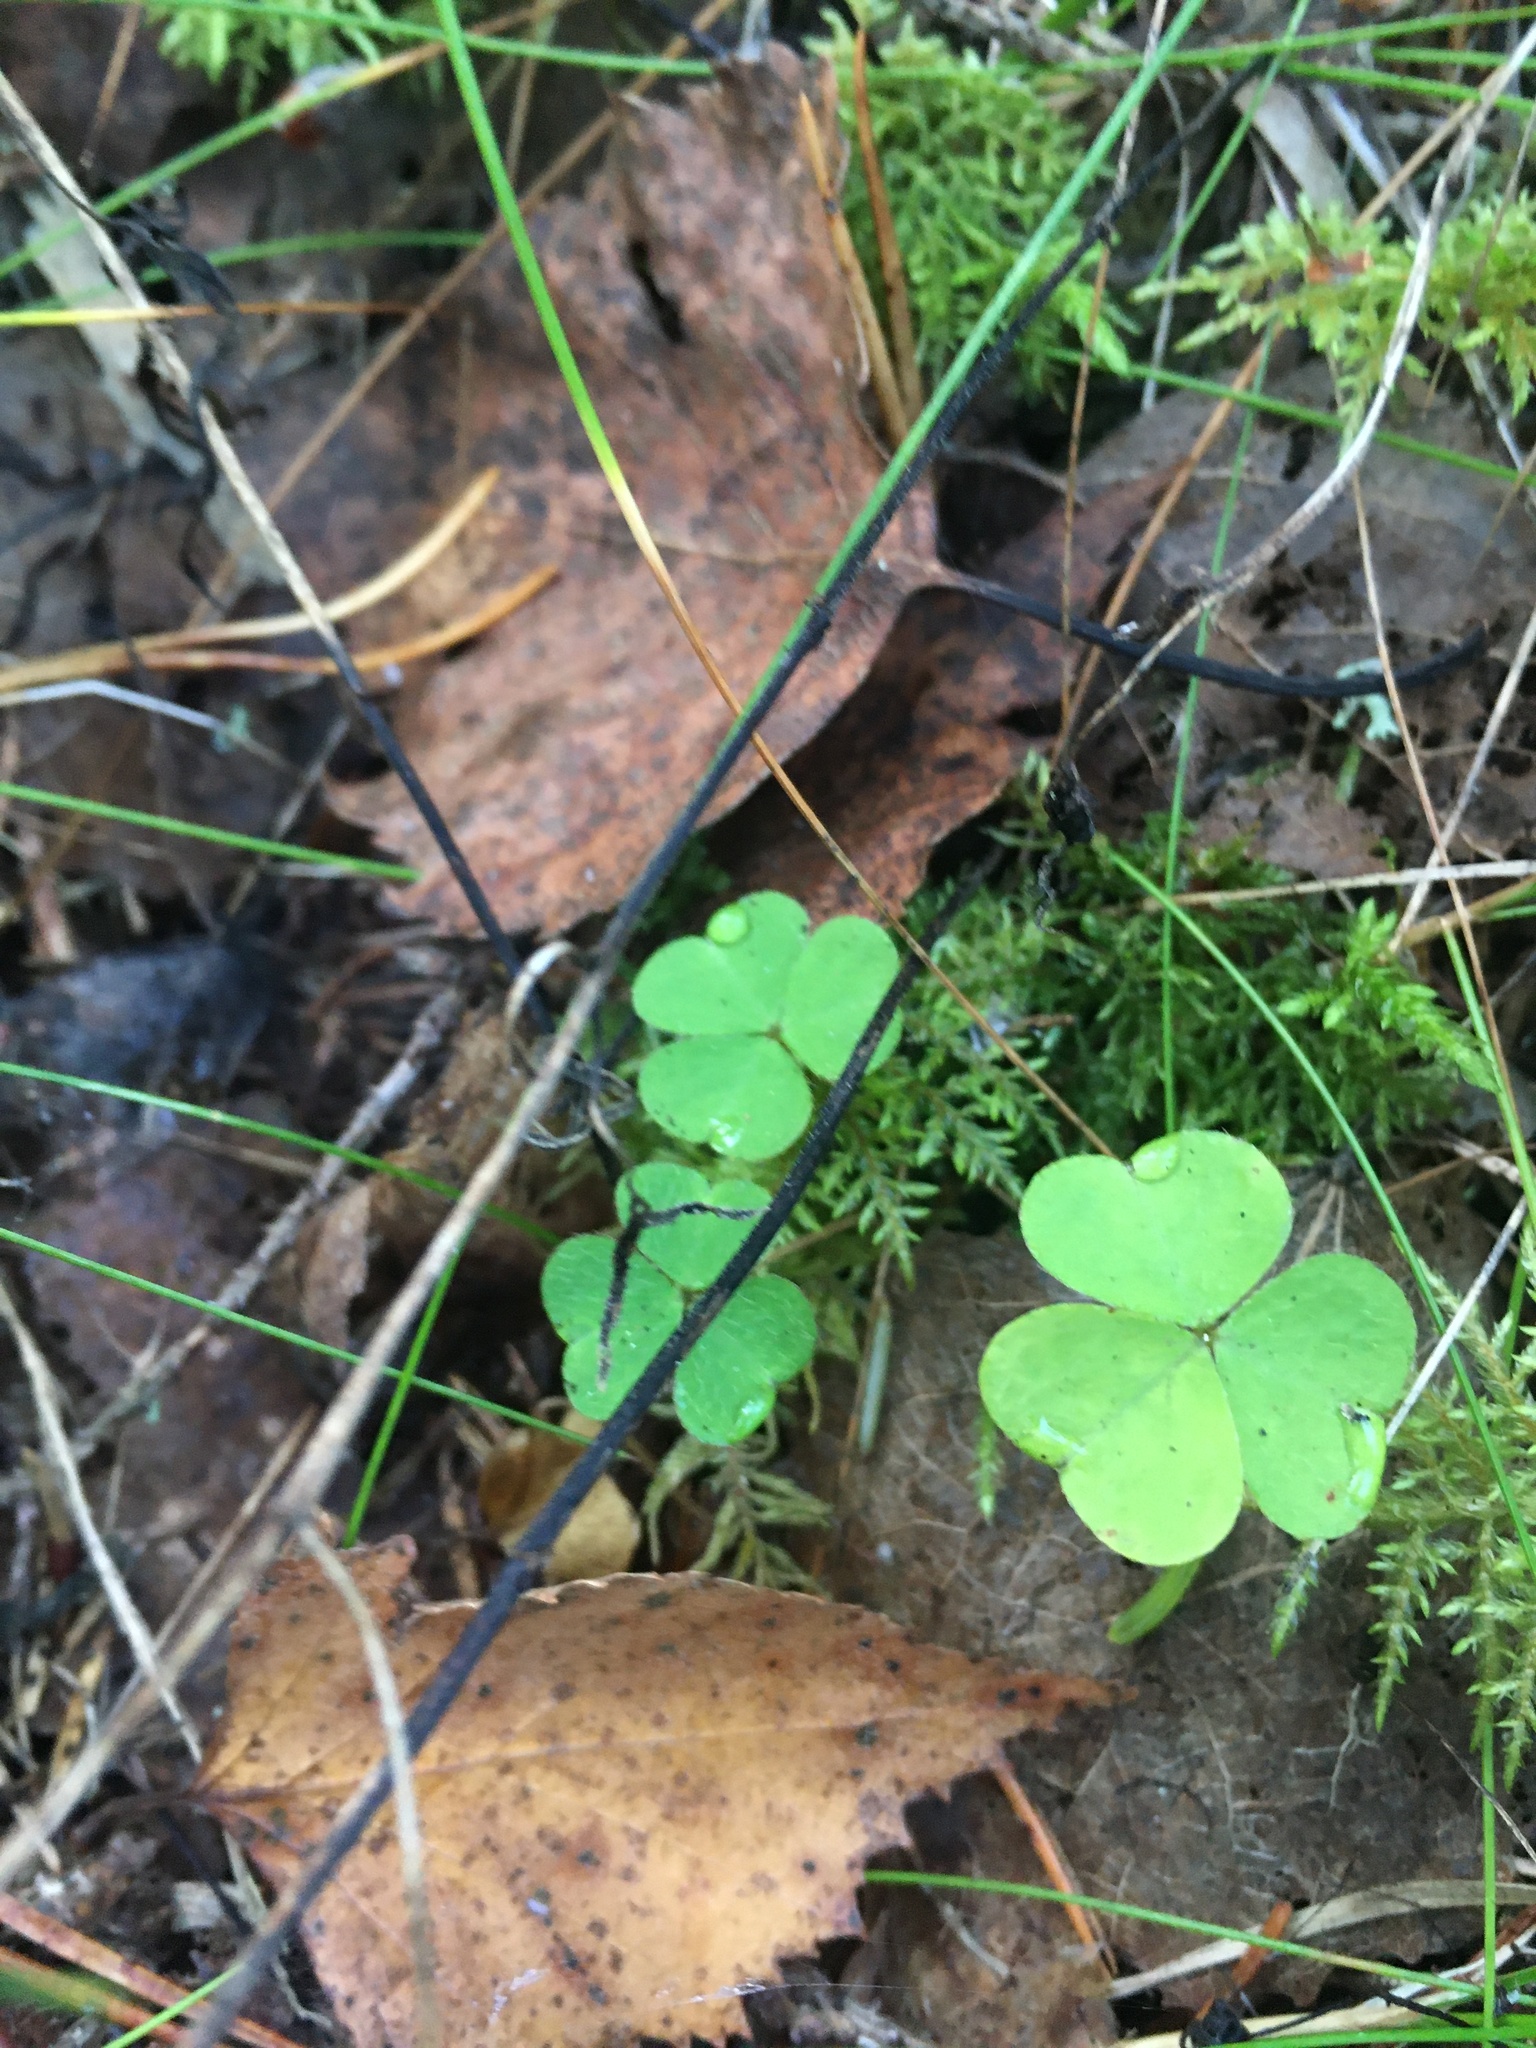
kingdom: Plantae
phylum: Tracheophyta
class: Magnoliopsida
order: Oxalidales
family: Oxalidaceae
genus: Oxalis
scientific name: Oxalis acetosella
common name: Wood-sorrel
